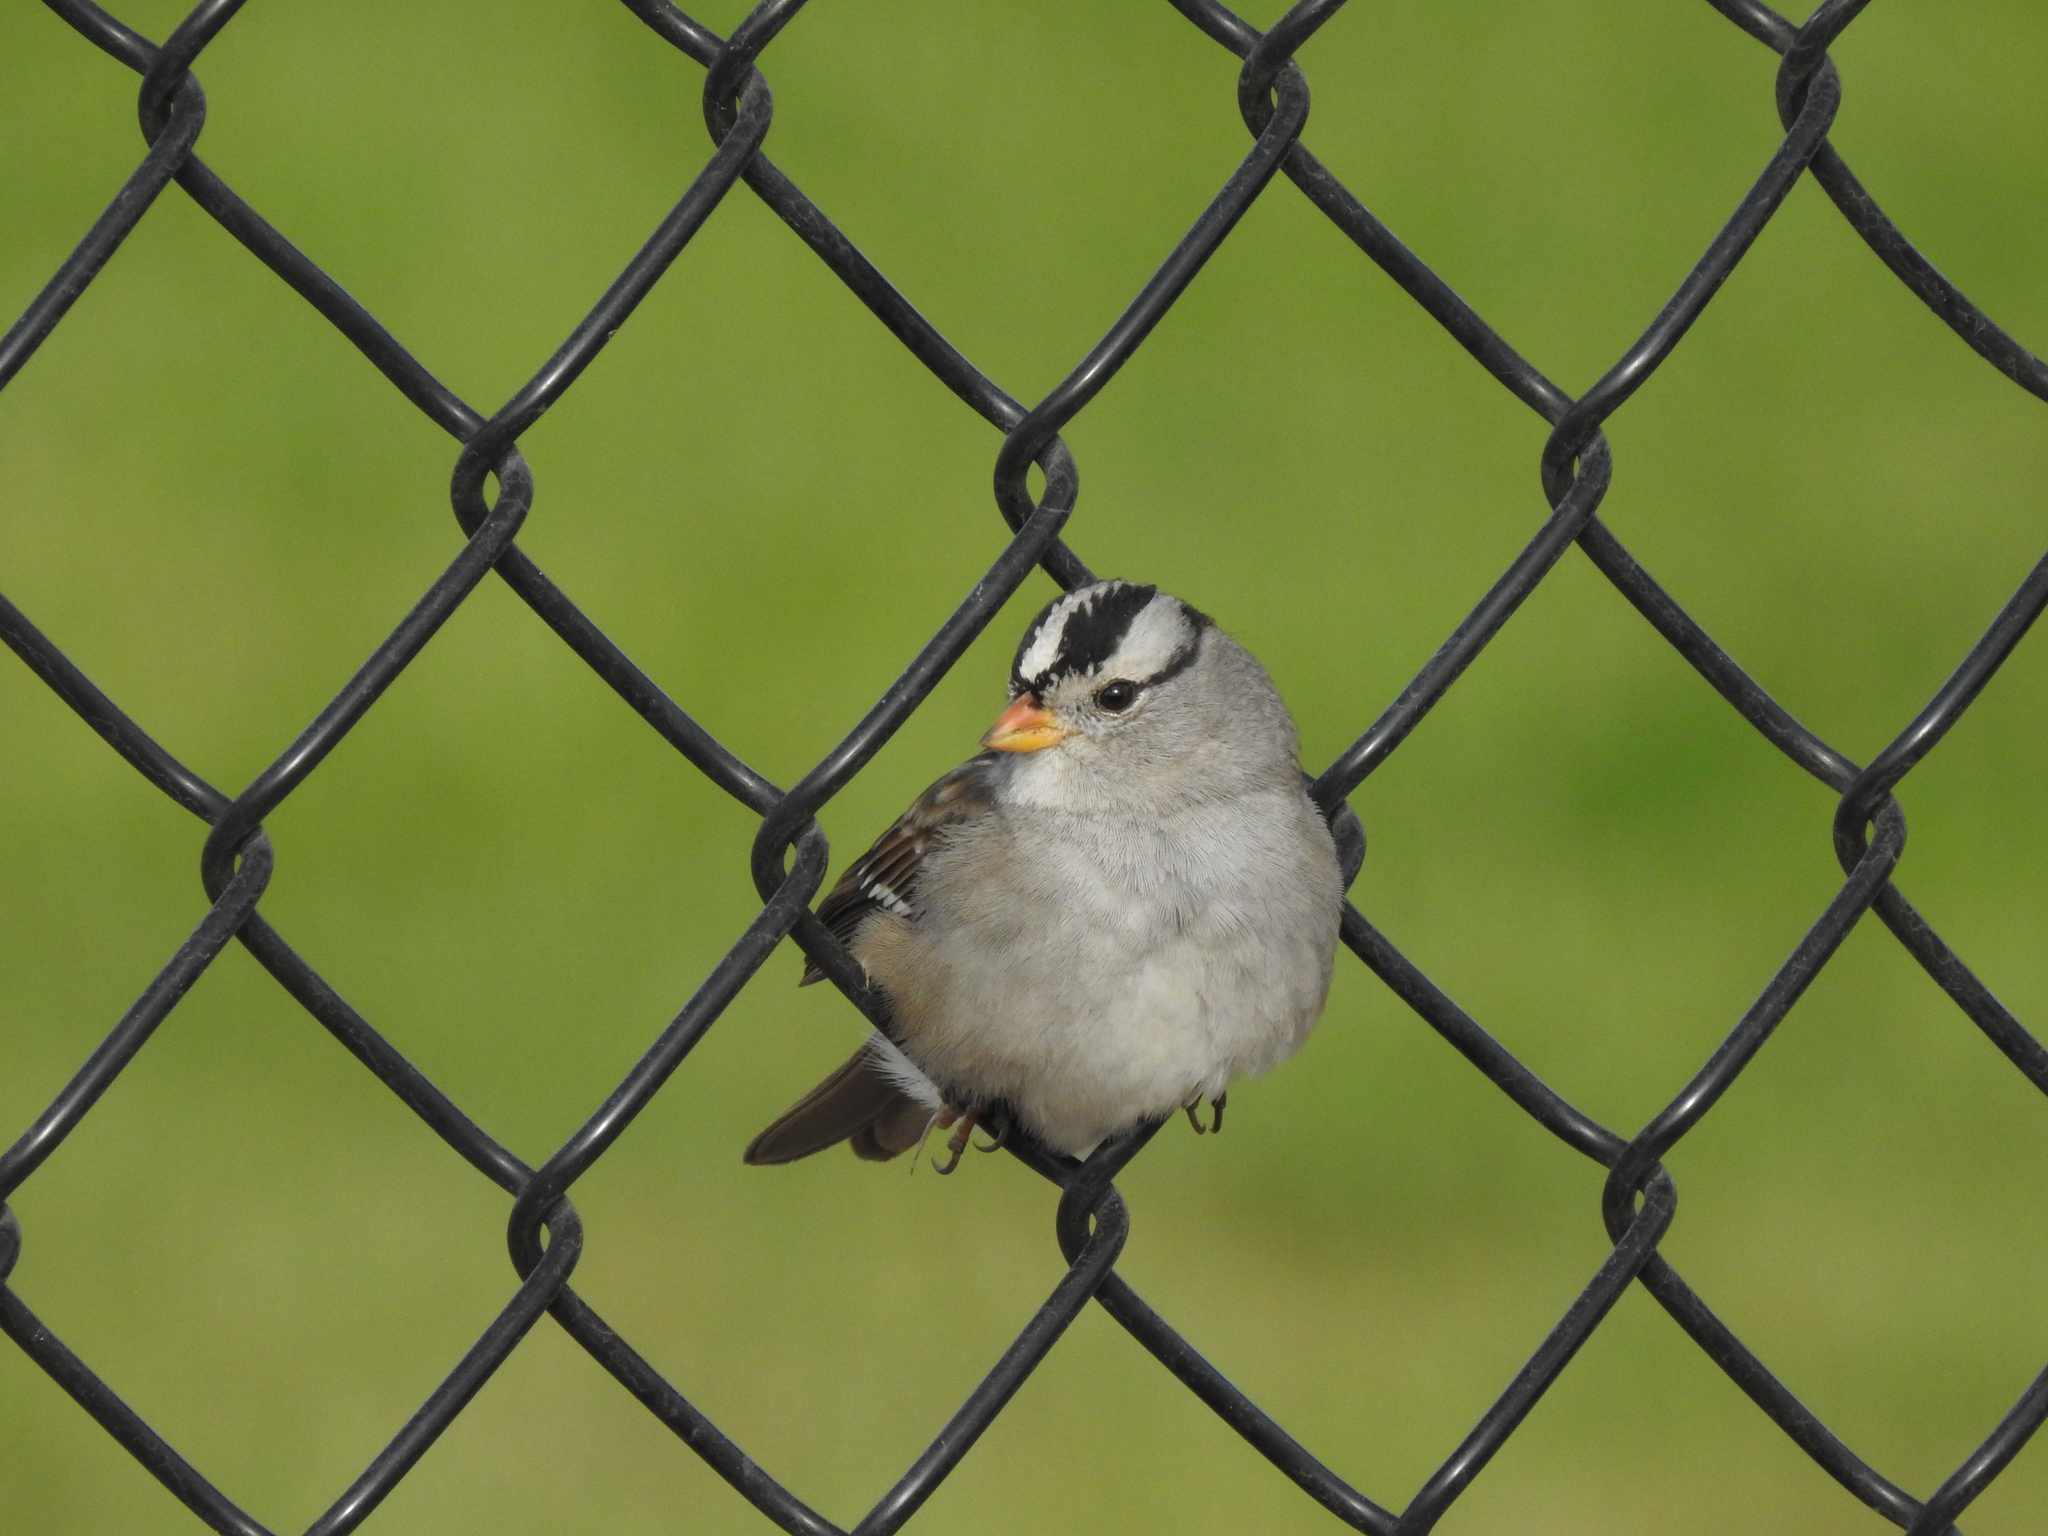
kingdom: Animalia
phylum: Chordata
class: Aves
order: Passeriformes
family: Passerellidae
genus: Zonotrichia
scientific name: Zonotrichia leucophrys
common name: White-crowned sparrow
